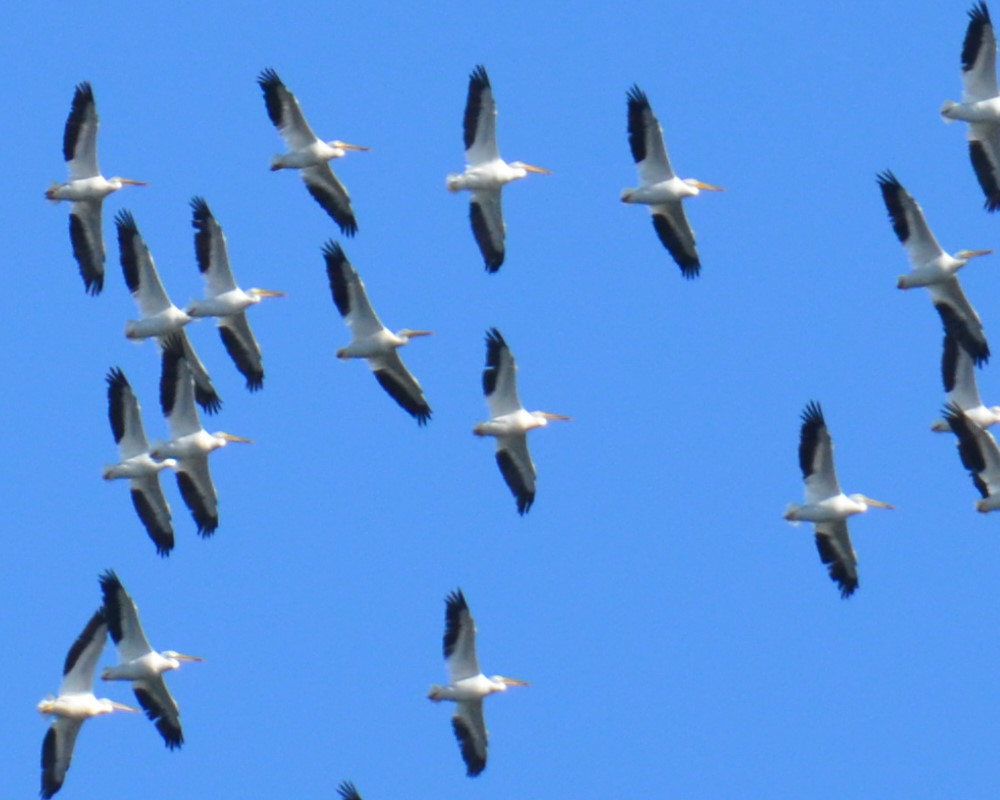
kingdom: Animalia
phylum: Chordata
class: Aves
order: Pelecaniformes
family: Pelecanidae
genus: Pelecanus
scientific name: Pelecanus erythrorhynchos
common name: American white pelican
